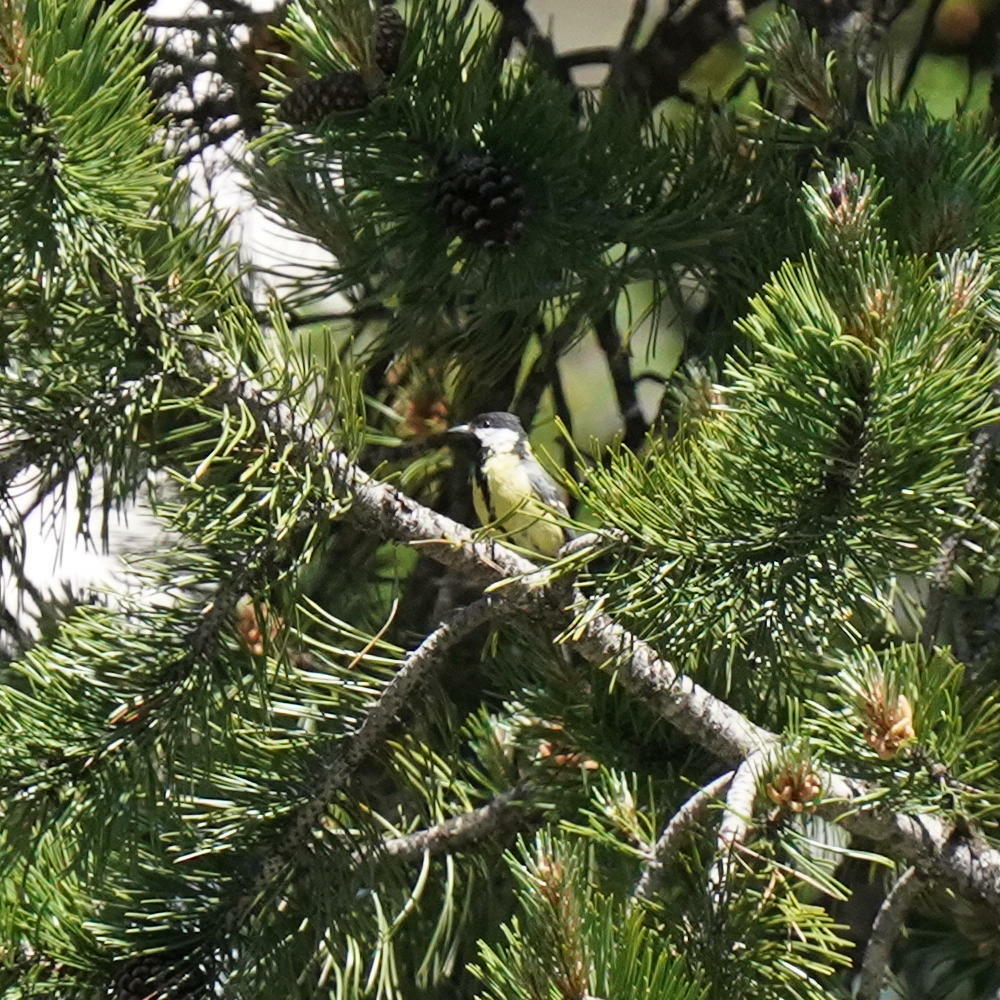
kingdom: Animalia
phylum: Chordata
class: Aves
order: Passeriformes
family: Paridae
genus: Parus
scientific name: Parus major
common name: Great tit
